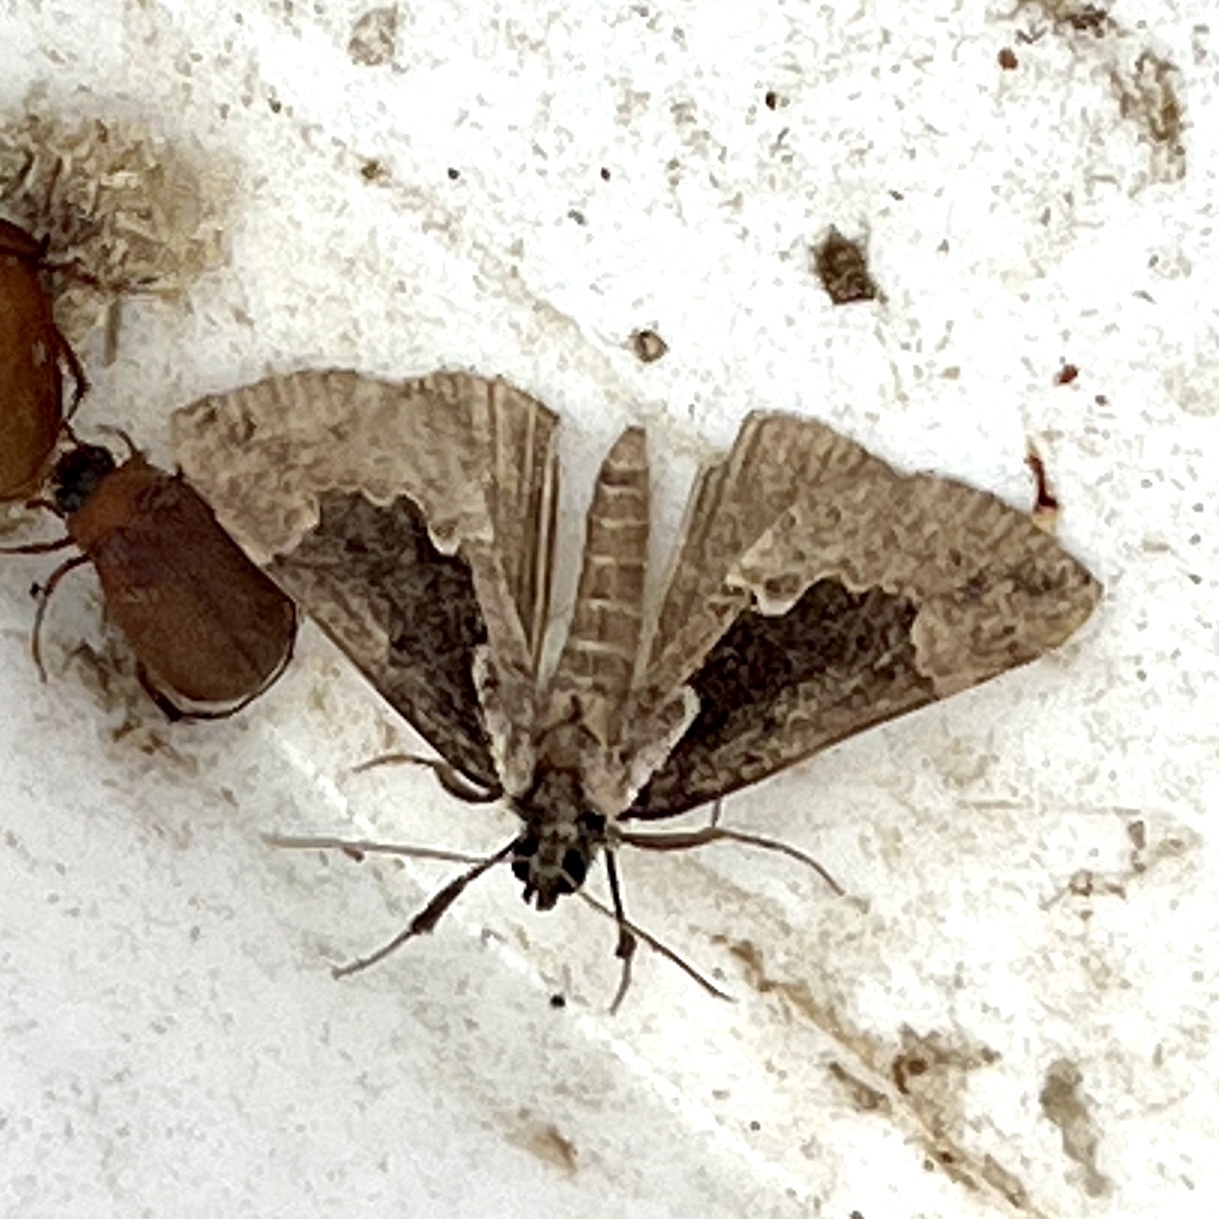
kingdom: Animalia
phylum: Arthropoda
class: Insecta
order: Lepidoptera
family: Erebidae
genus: Hypena
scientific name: Hypena baltimoralis
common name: Baltimore snout
